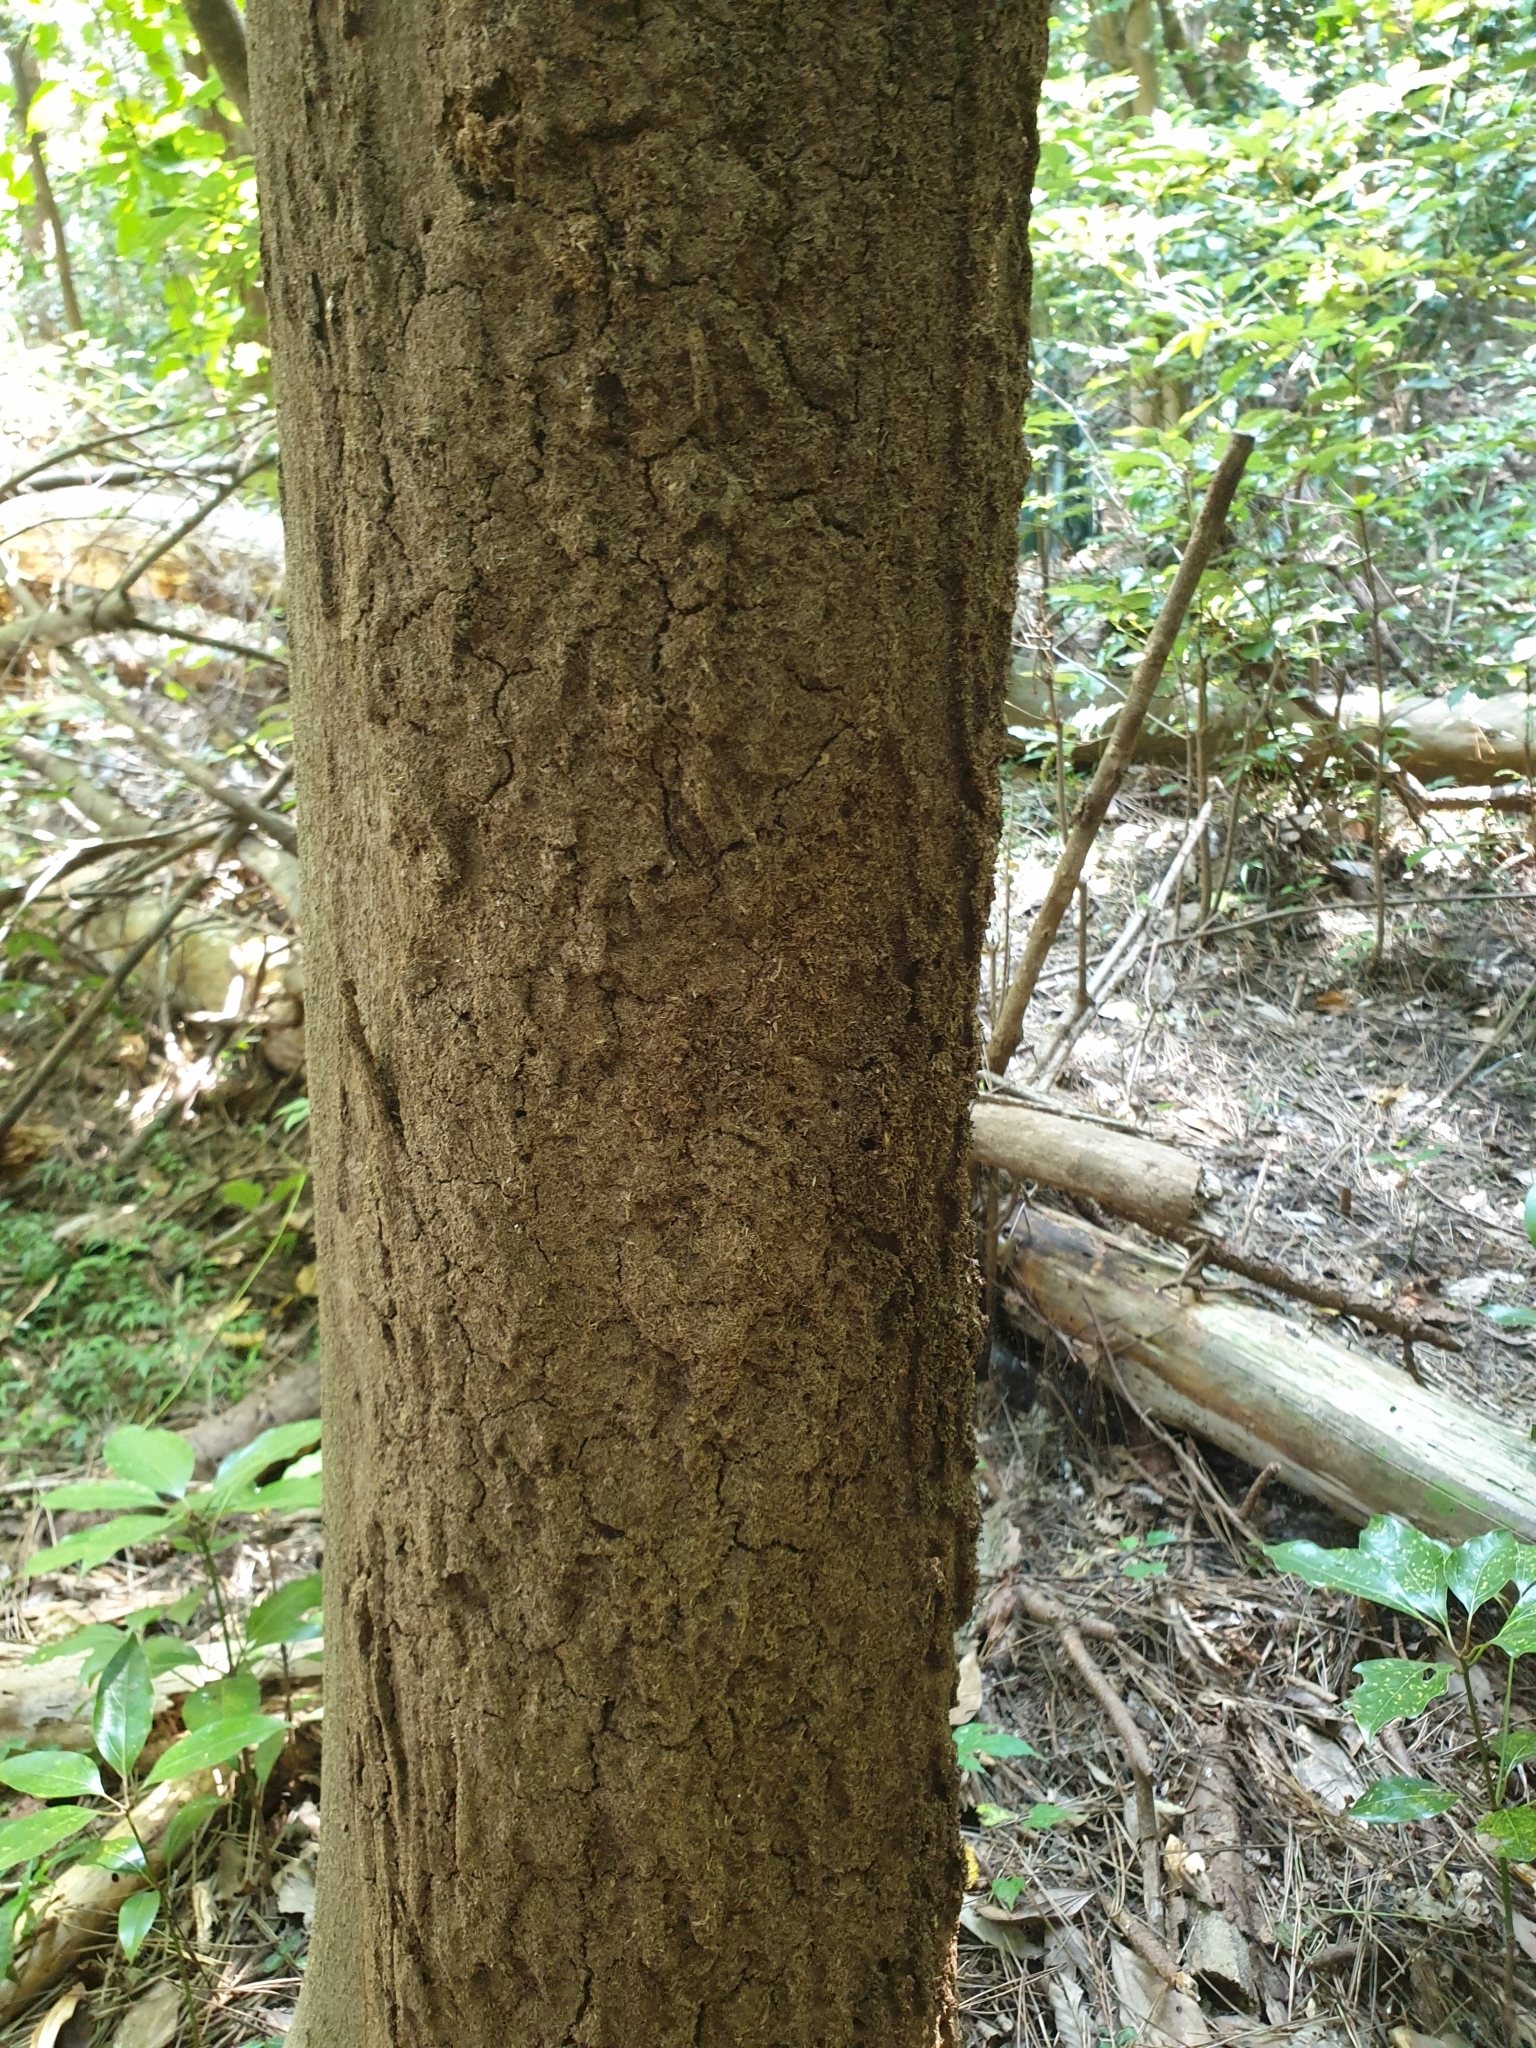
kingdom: Animalia
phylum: Arthropoda
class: Insecta
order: Hymenoptera
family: Formicidae
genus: Lasius
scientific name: Lasius hayashi
